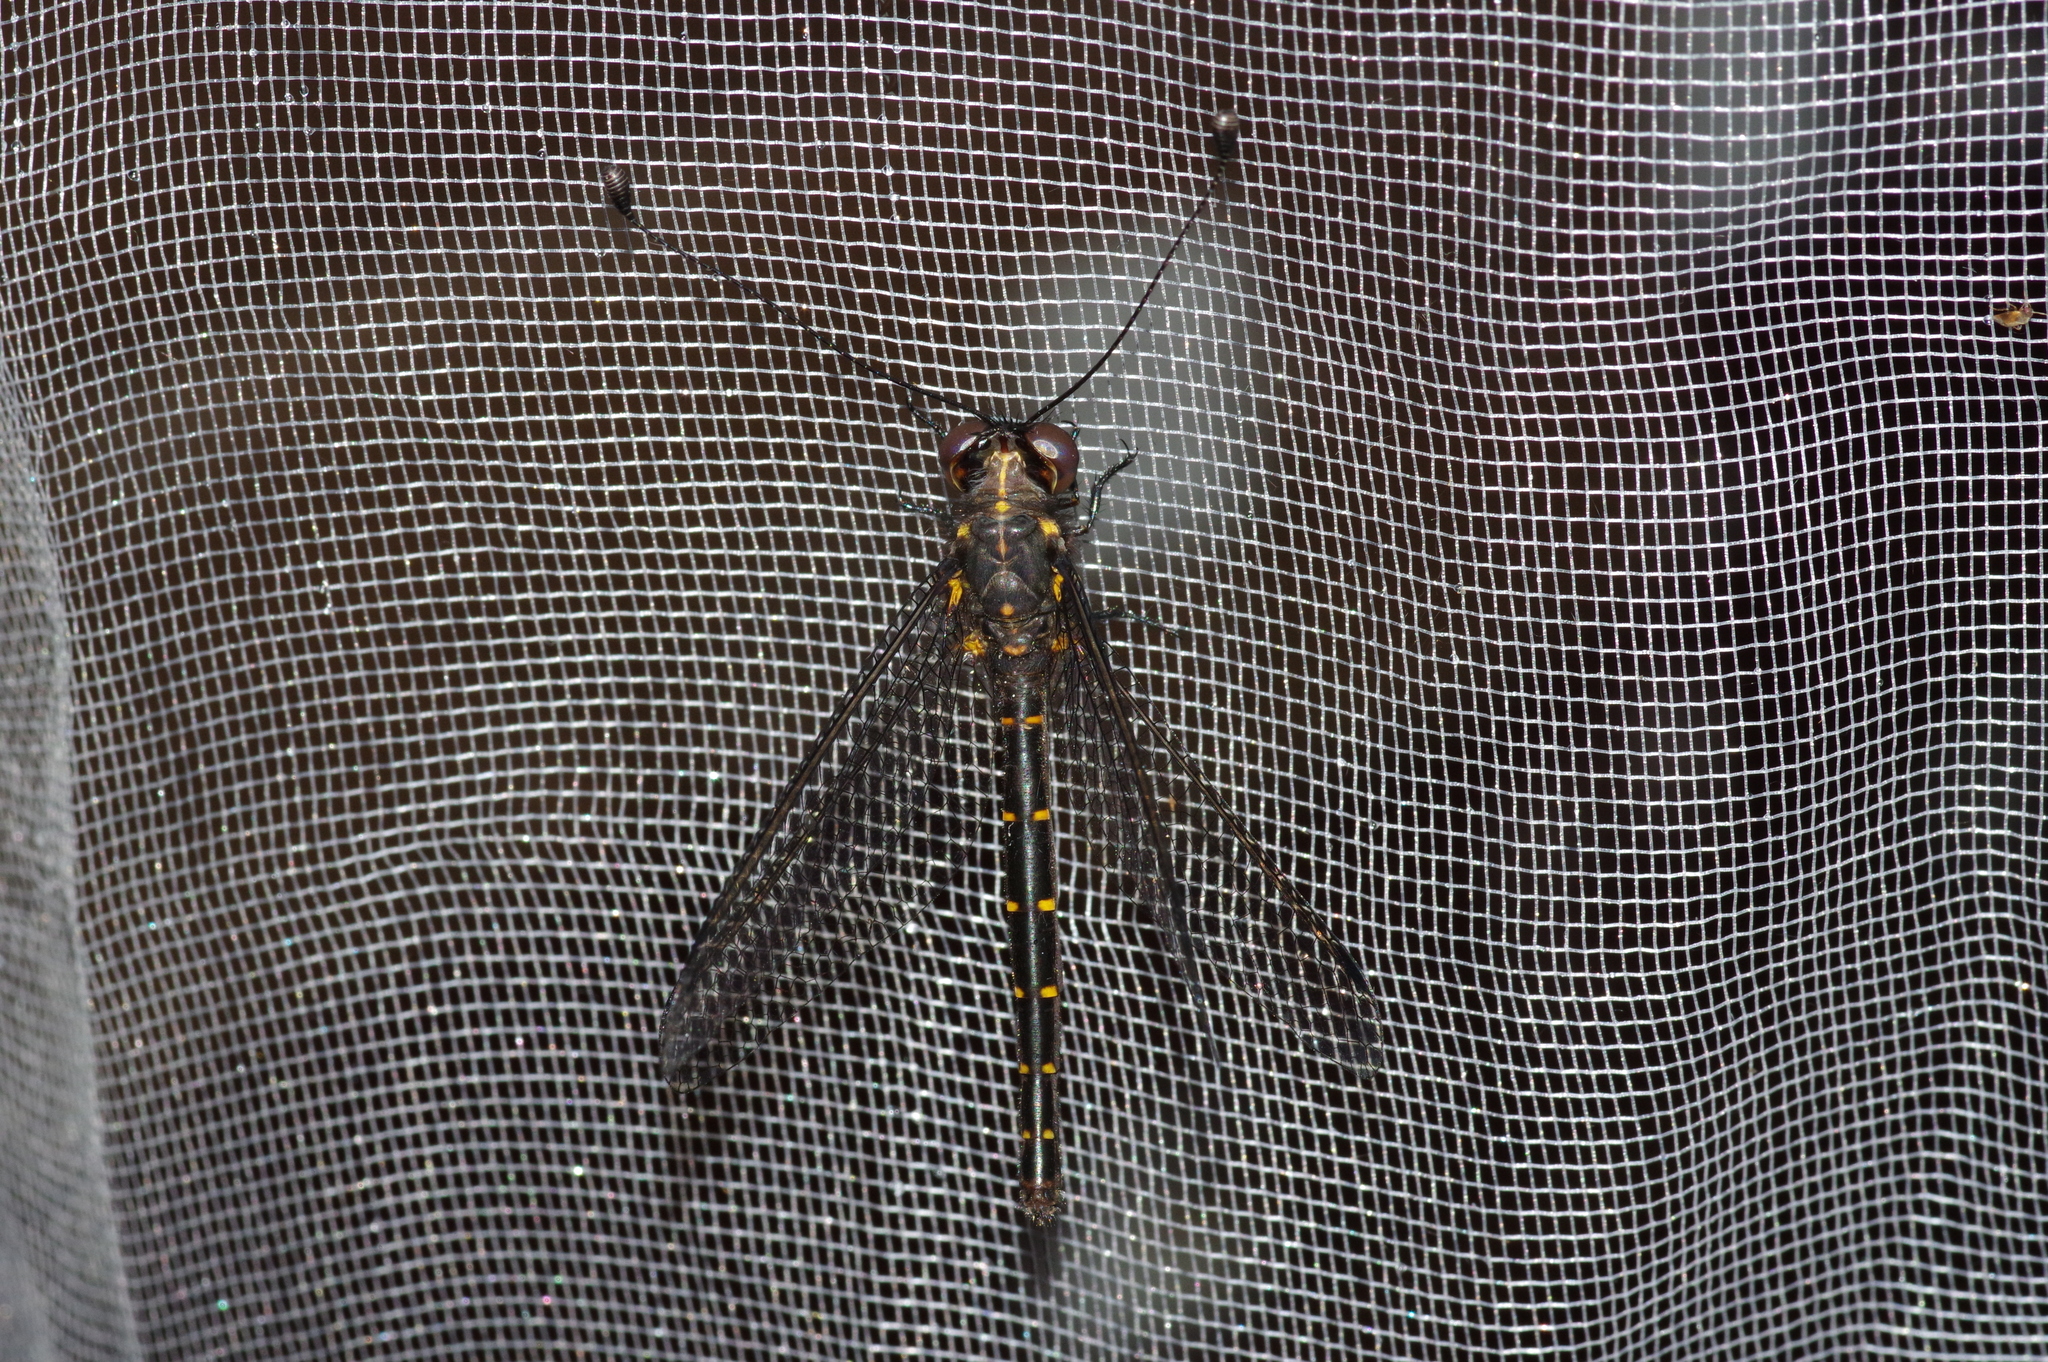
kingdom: Animalia
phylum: Arthropoda
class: Insecta
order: Neuroptera
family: Ascalaphidae
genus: Suphalomitus
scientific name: Suphalomitus okinavensis
